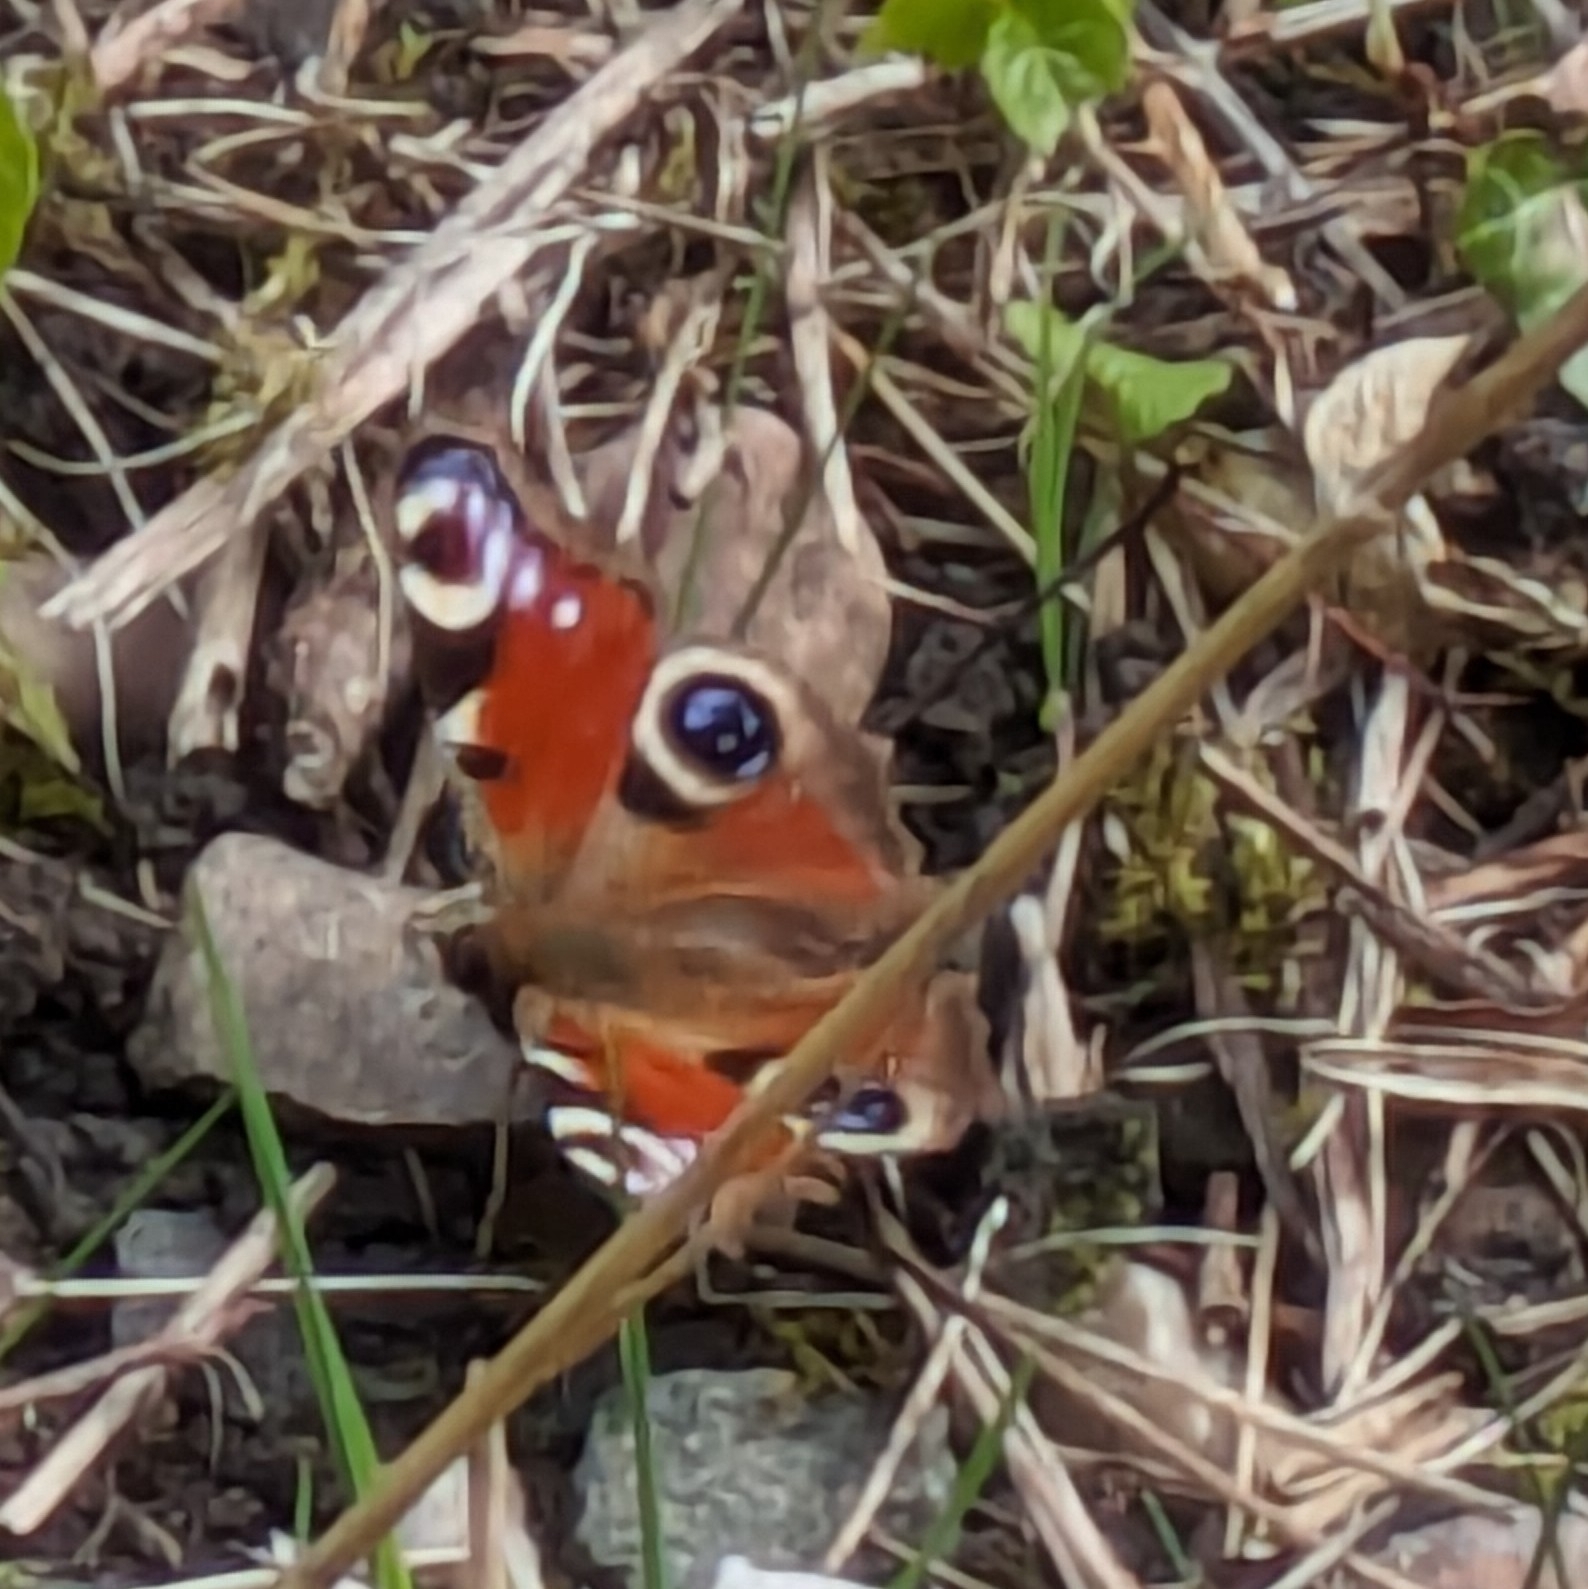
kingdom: Animalia
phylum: Arthropoda
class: Insecta
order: Lepidoptera
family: Nymphalidae
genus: Aglais
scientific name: Aglais io
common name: Peacock
